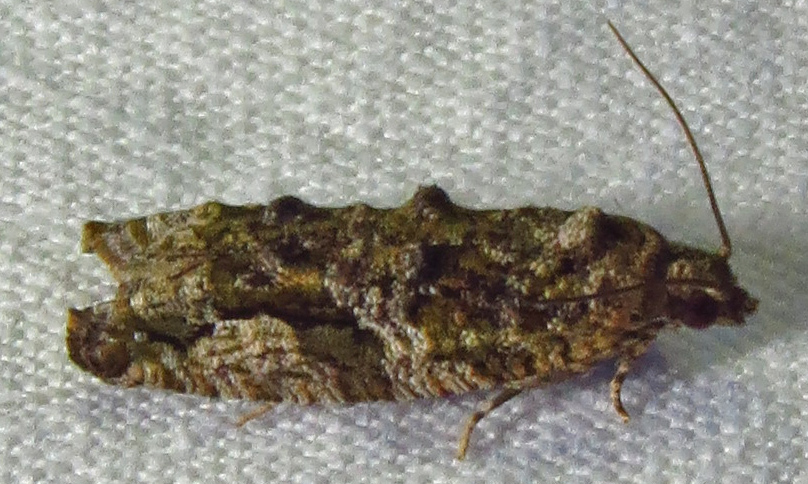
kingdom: Animalia
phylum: Arthropoda
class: Insecta
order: Lepidoptera
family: Tortricidae
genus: Proteoteras
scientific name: Proteoteras aesculana
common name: Maple twig borer moth
